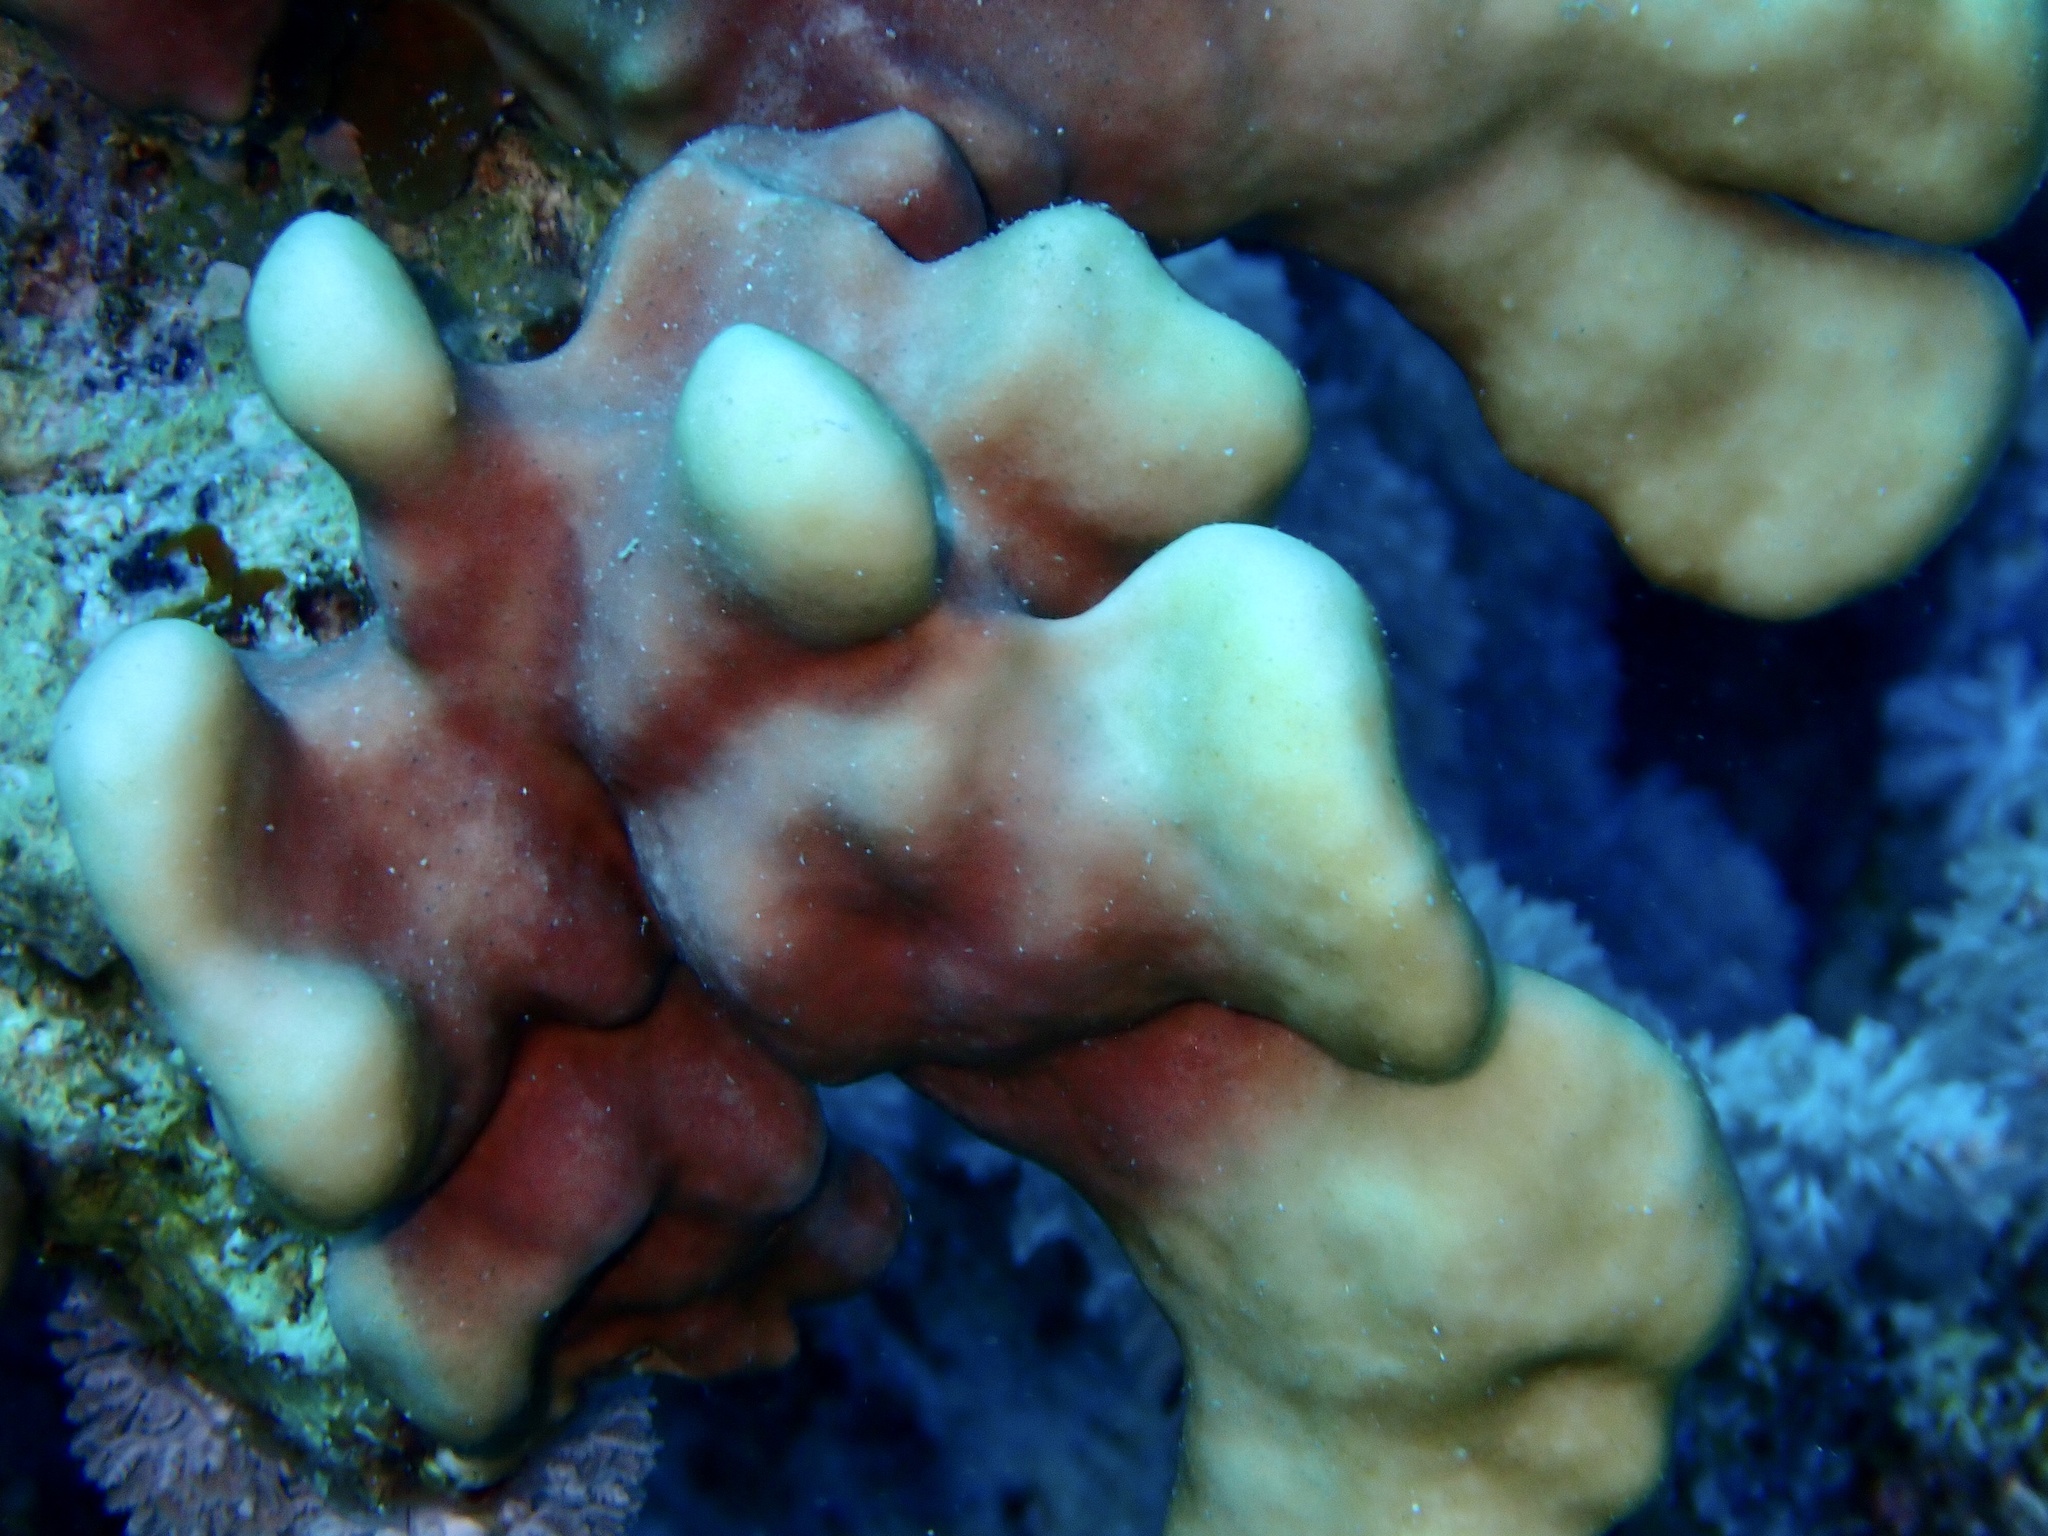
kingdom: Animalia
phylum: Cnidaria
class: Hydrozoa
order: Anthoathecata
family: Milleporidae
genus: Millepora
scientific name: Millepora exaesa
